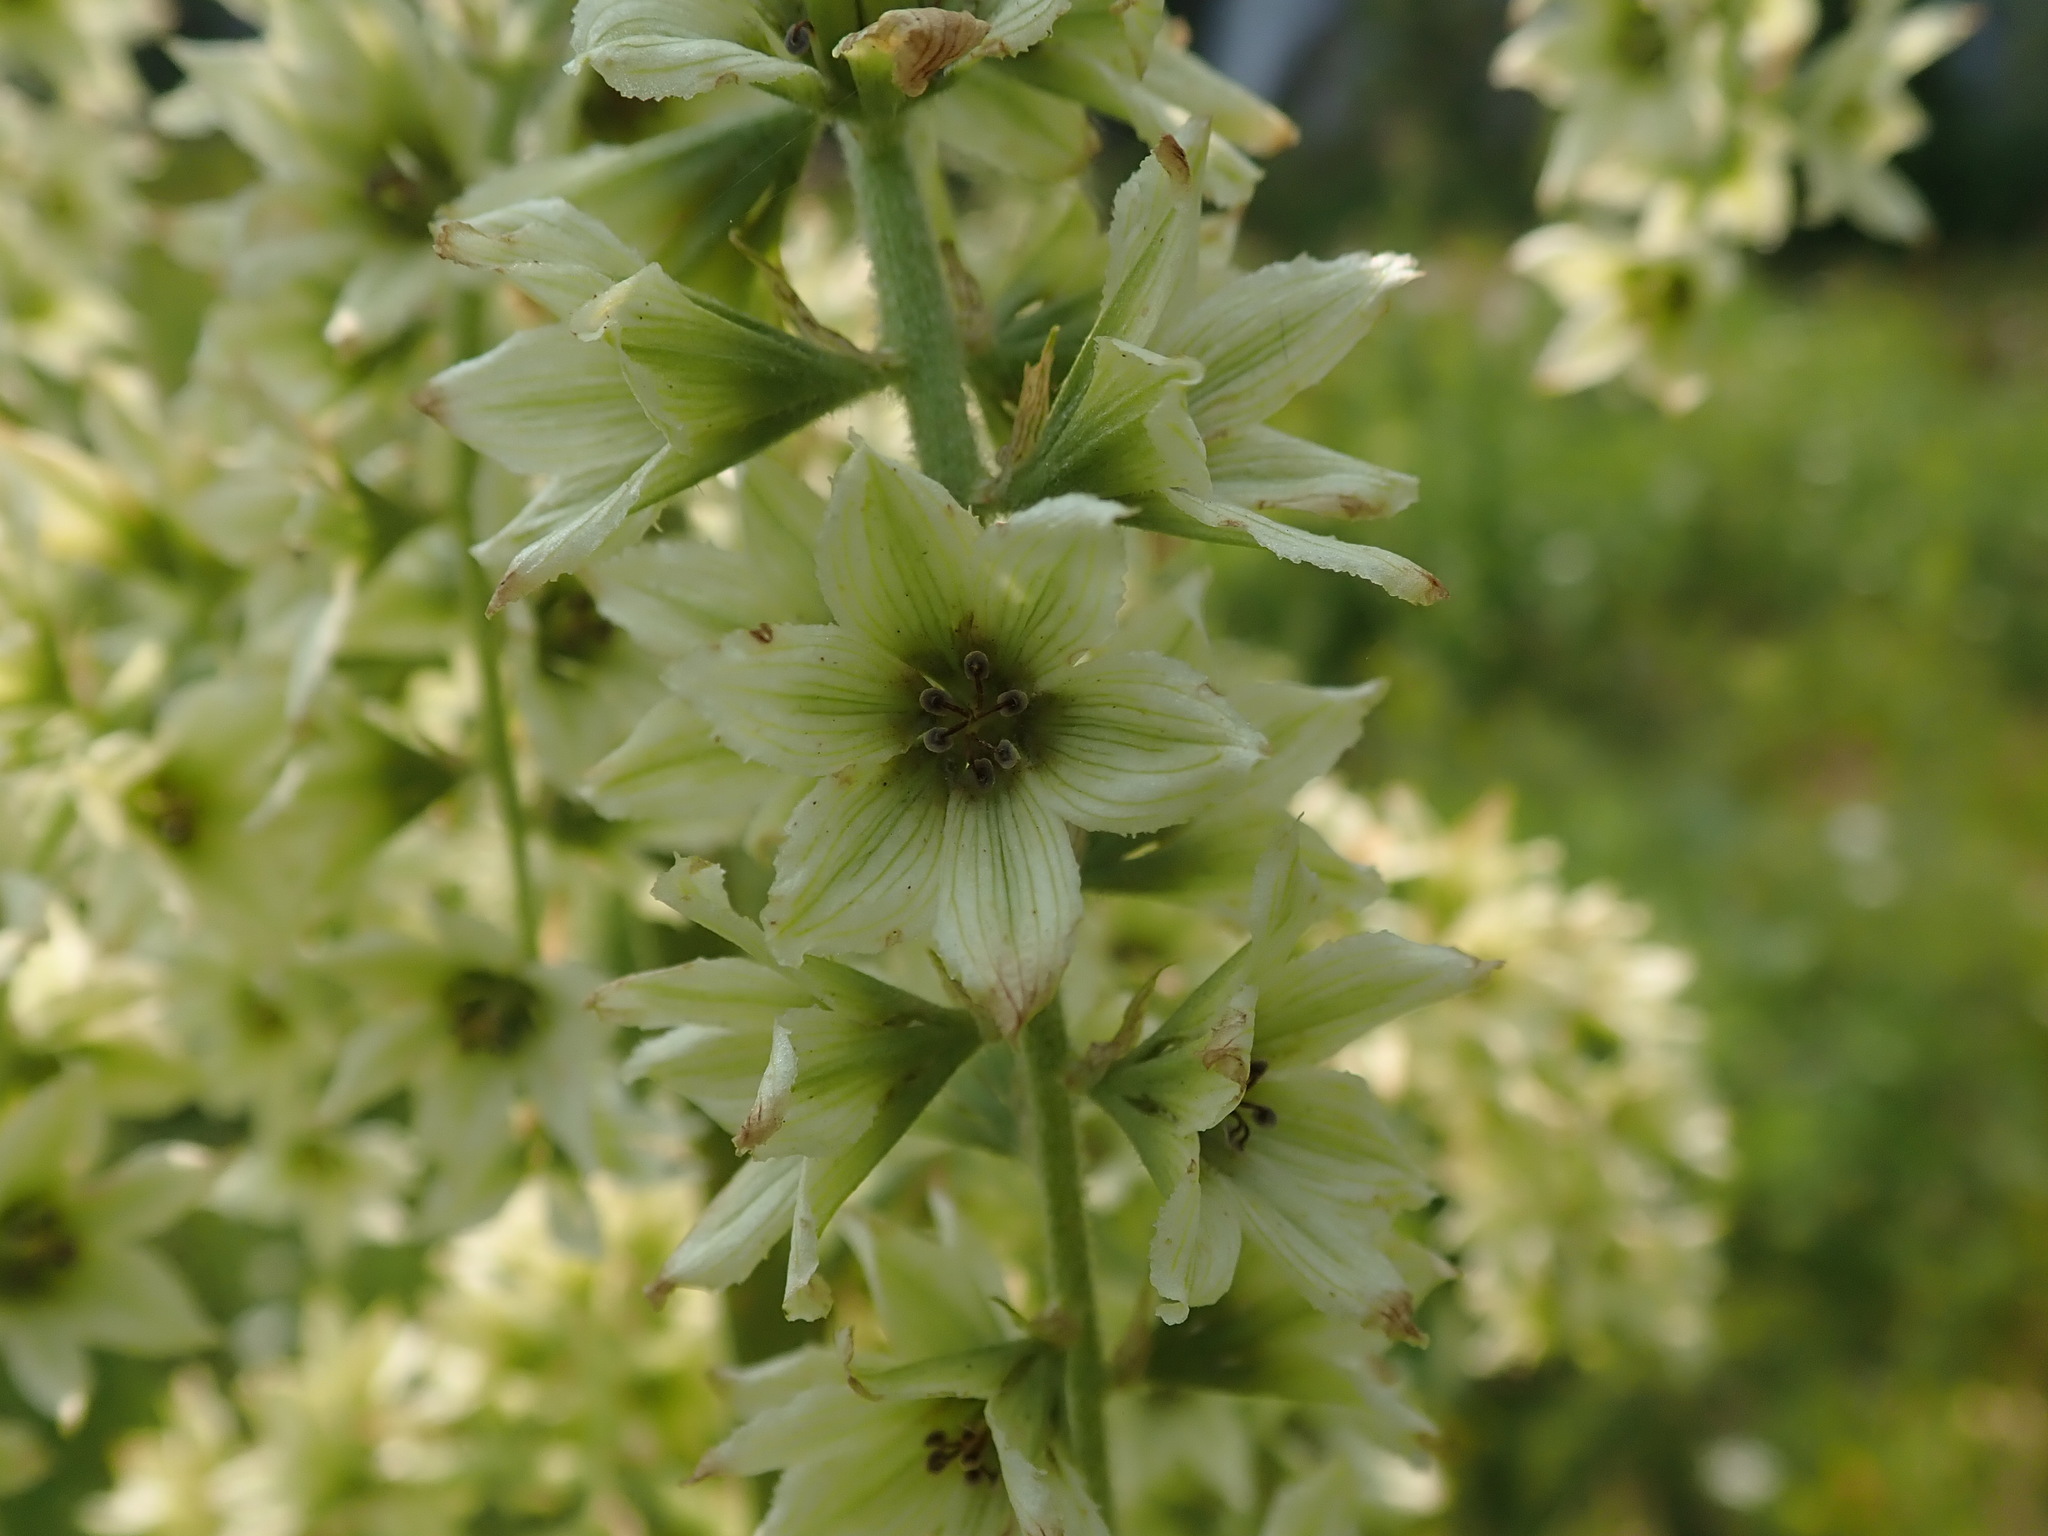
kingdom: Plantae
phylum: Tracheophyta
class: Liliopsida
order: Liliales
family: Melanthiaceae
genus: Veratrum
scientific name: Veratrum californicum
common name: California veratrum
